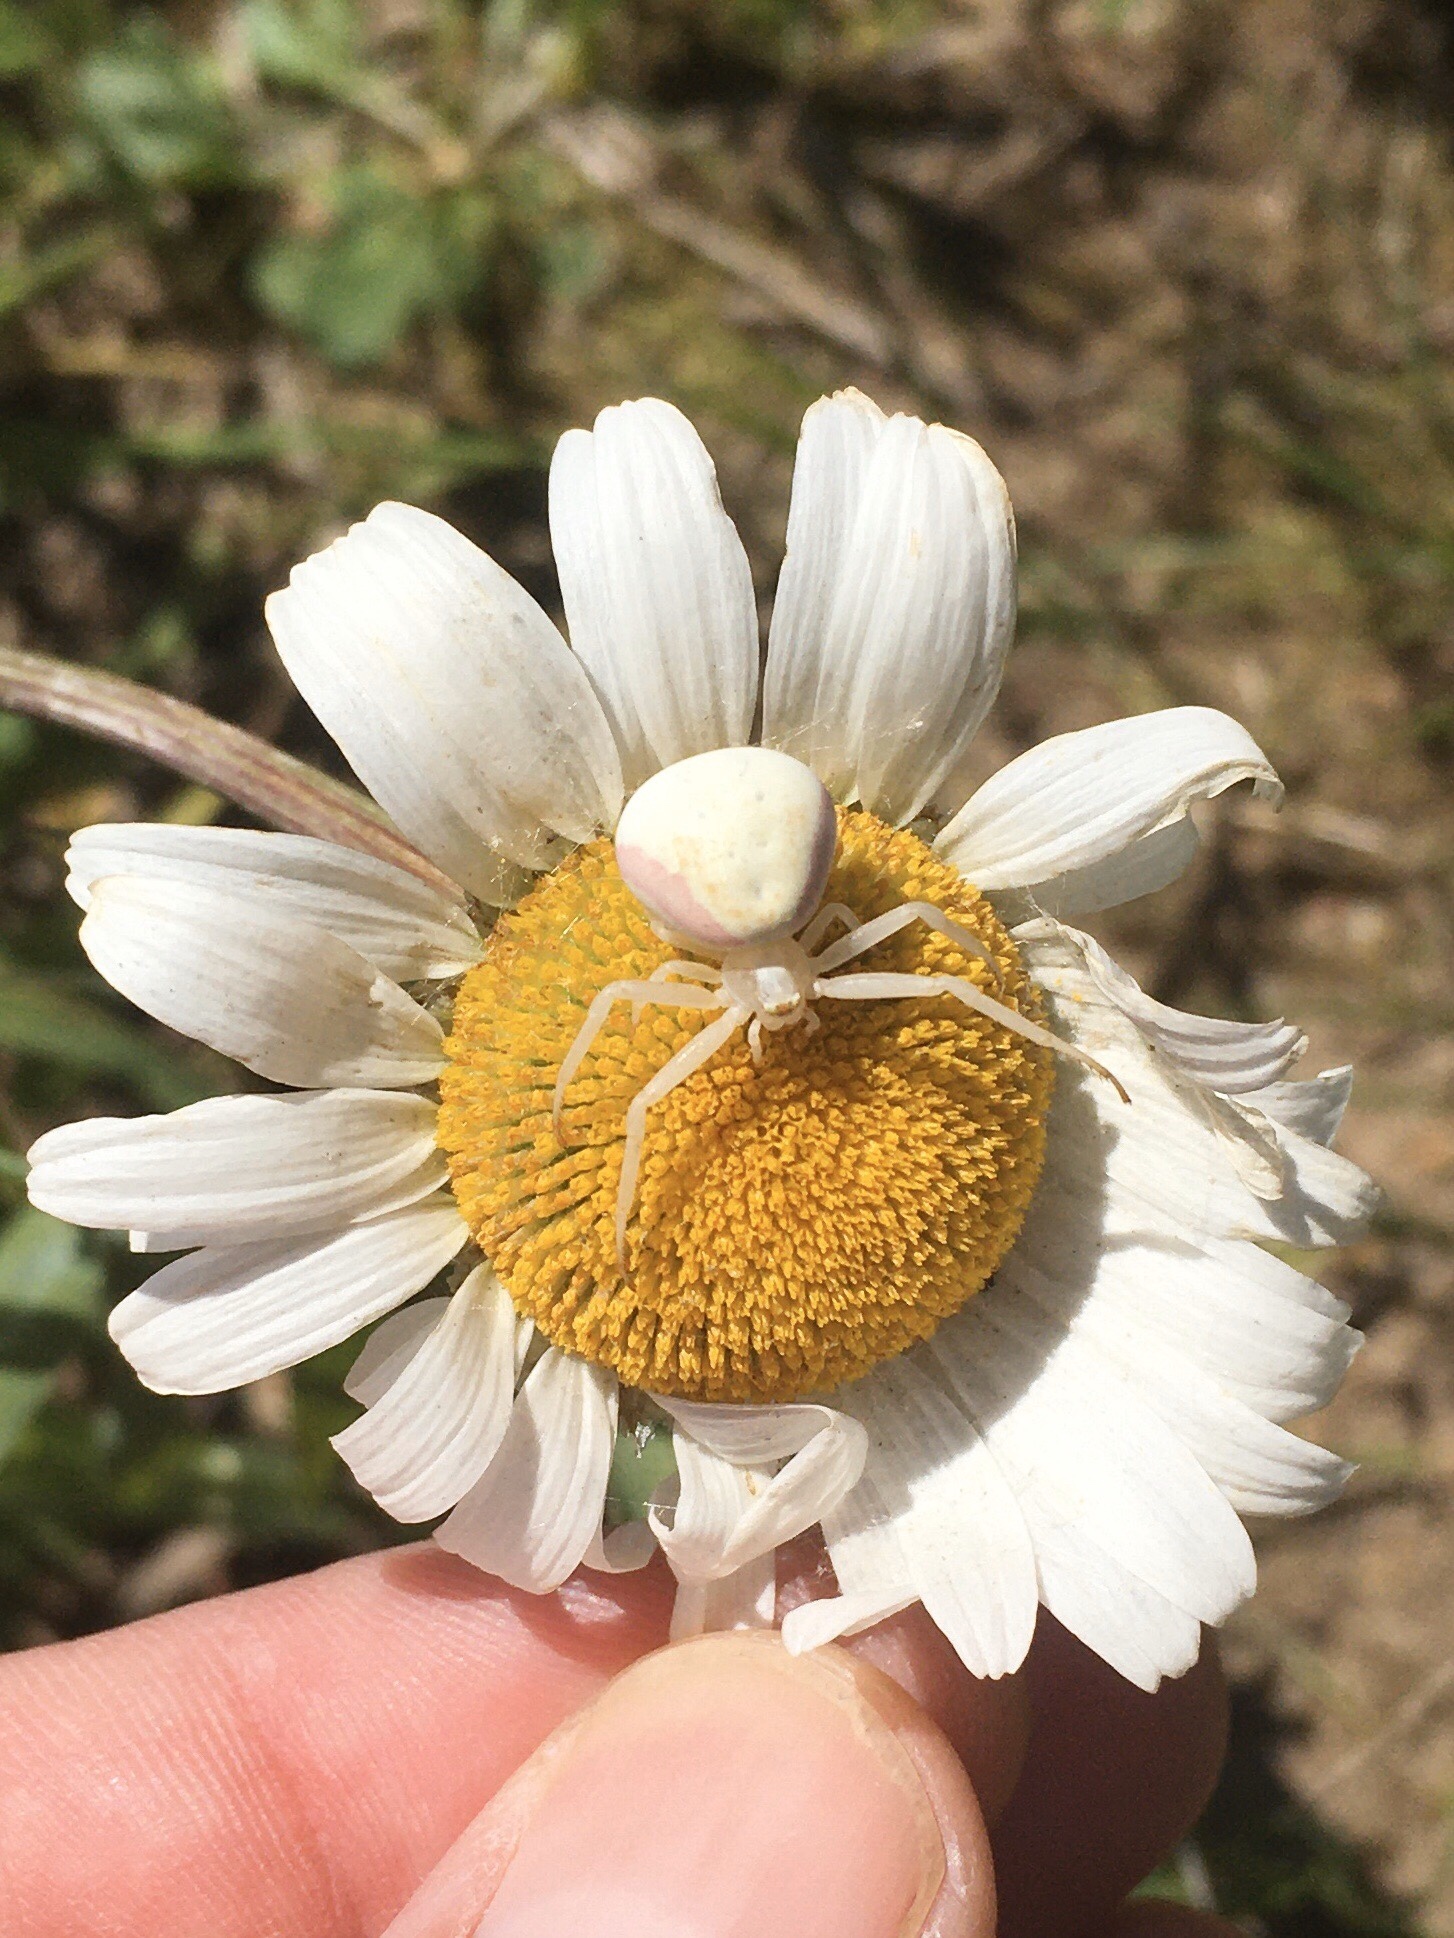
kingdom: Animalia
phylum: Arthropoda
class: Arachnida
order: Araneae
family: Thomisidae
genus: Misumena
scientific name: Misumena vatia
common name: Goldenrod crab spider
